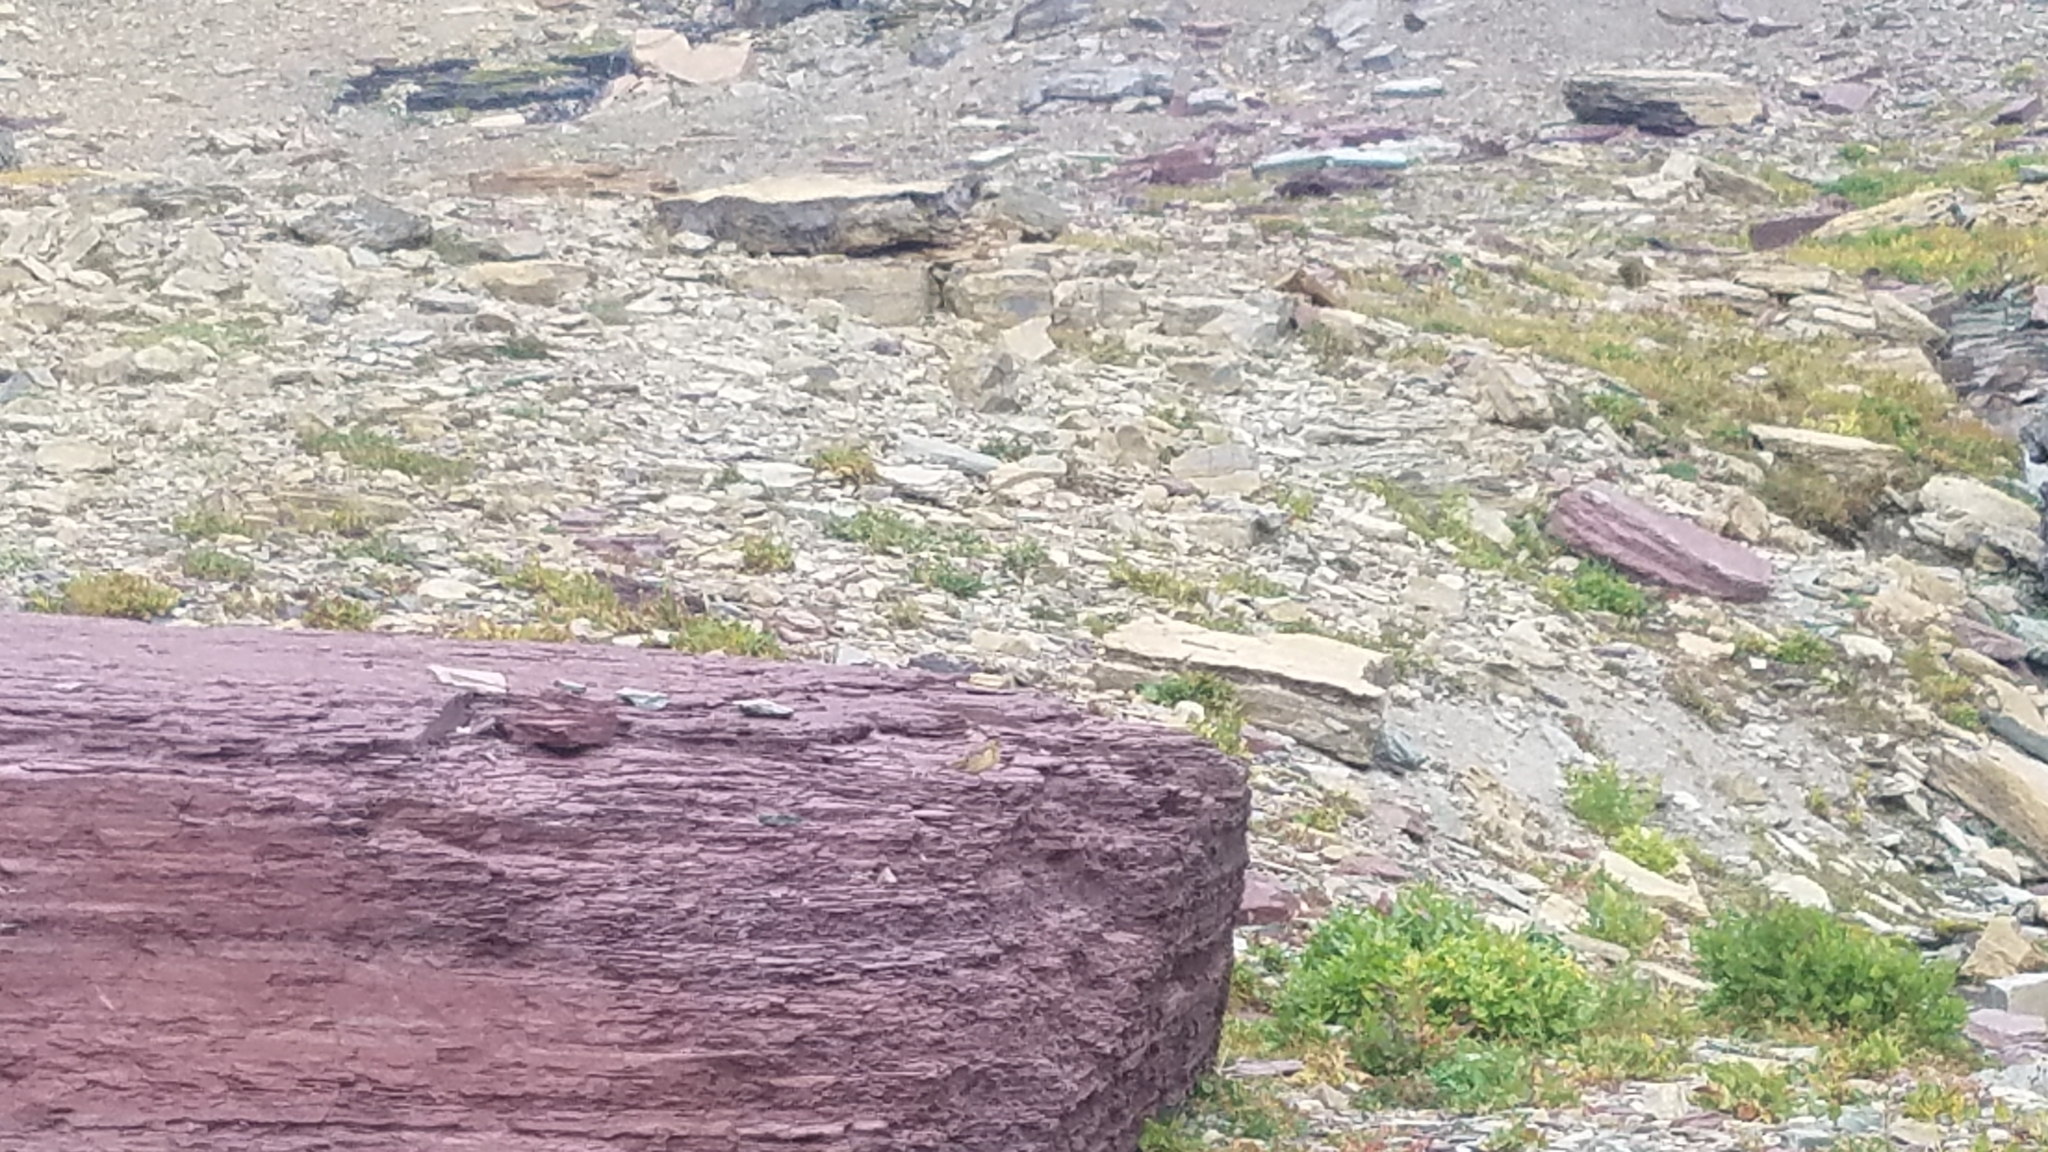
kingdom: Animalia
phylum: Chordata
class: Aves
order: Passeriformes
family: Motacillidae
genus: Anthus
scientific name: Anthus rubescens
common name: Buff-bellied pipit
